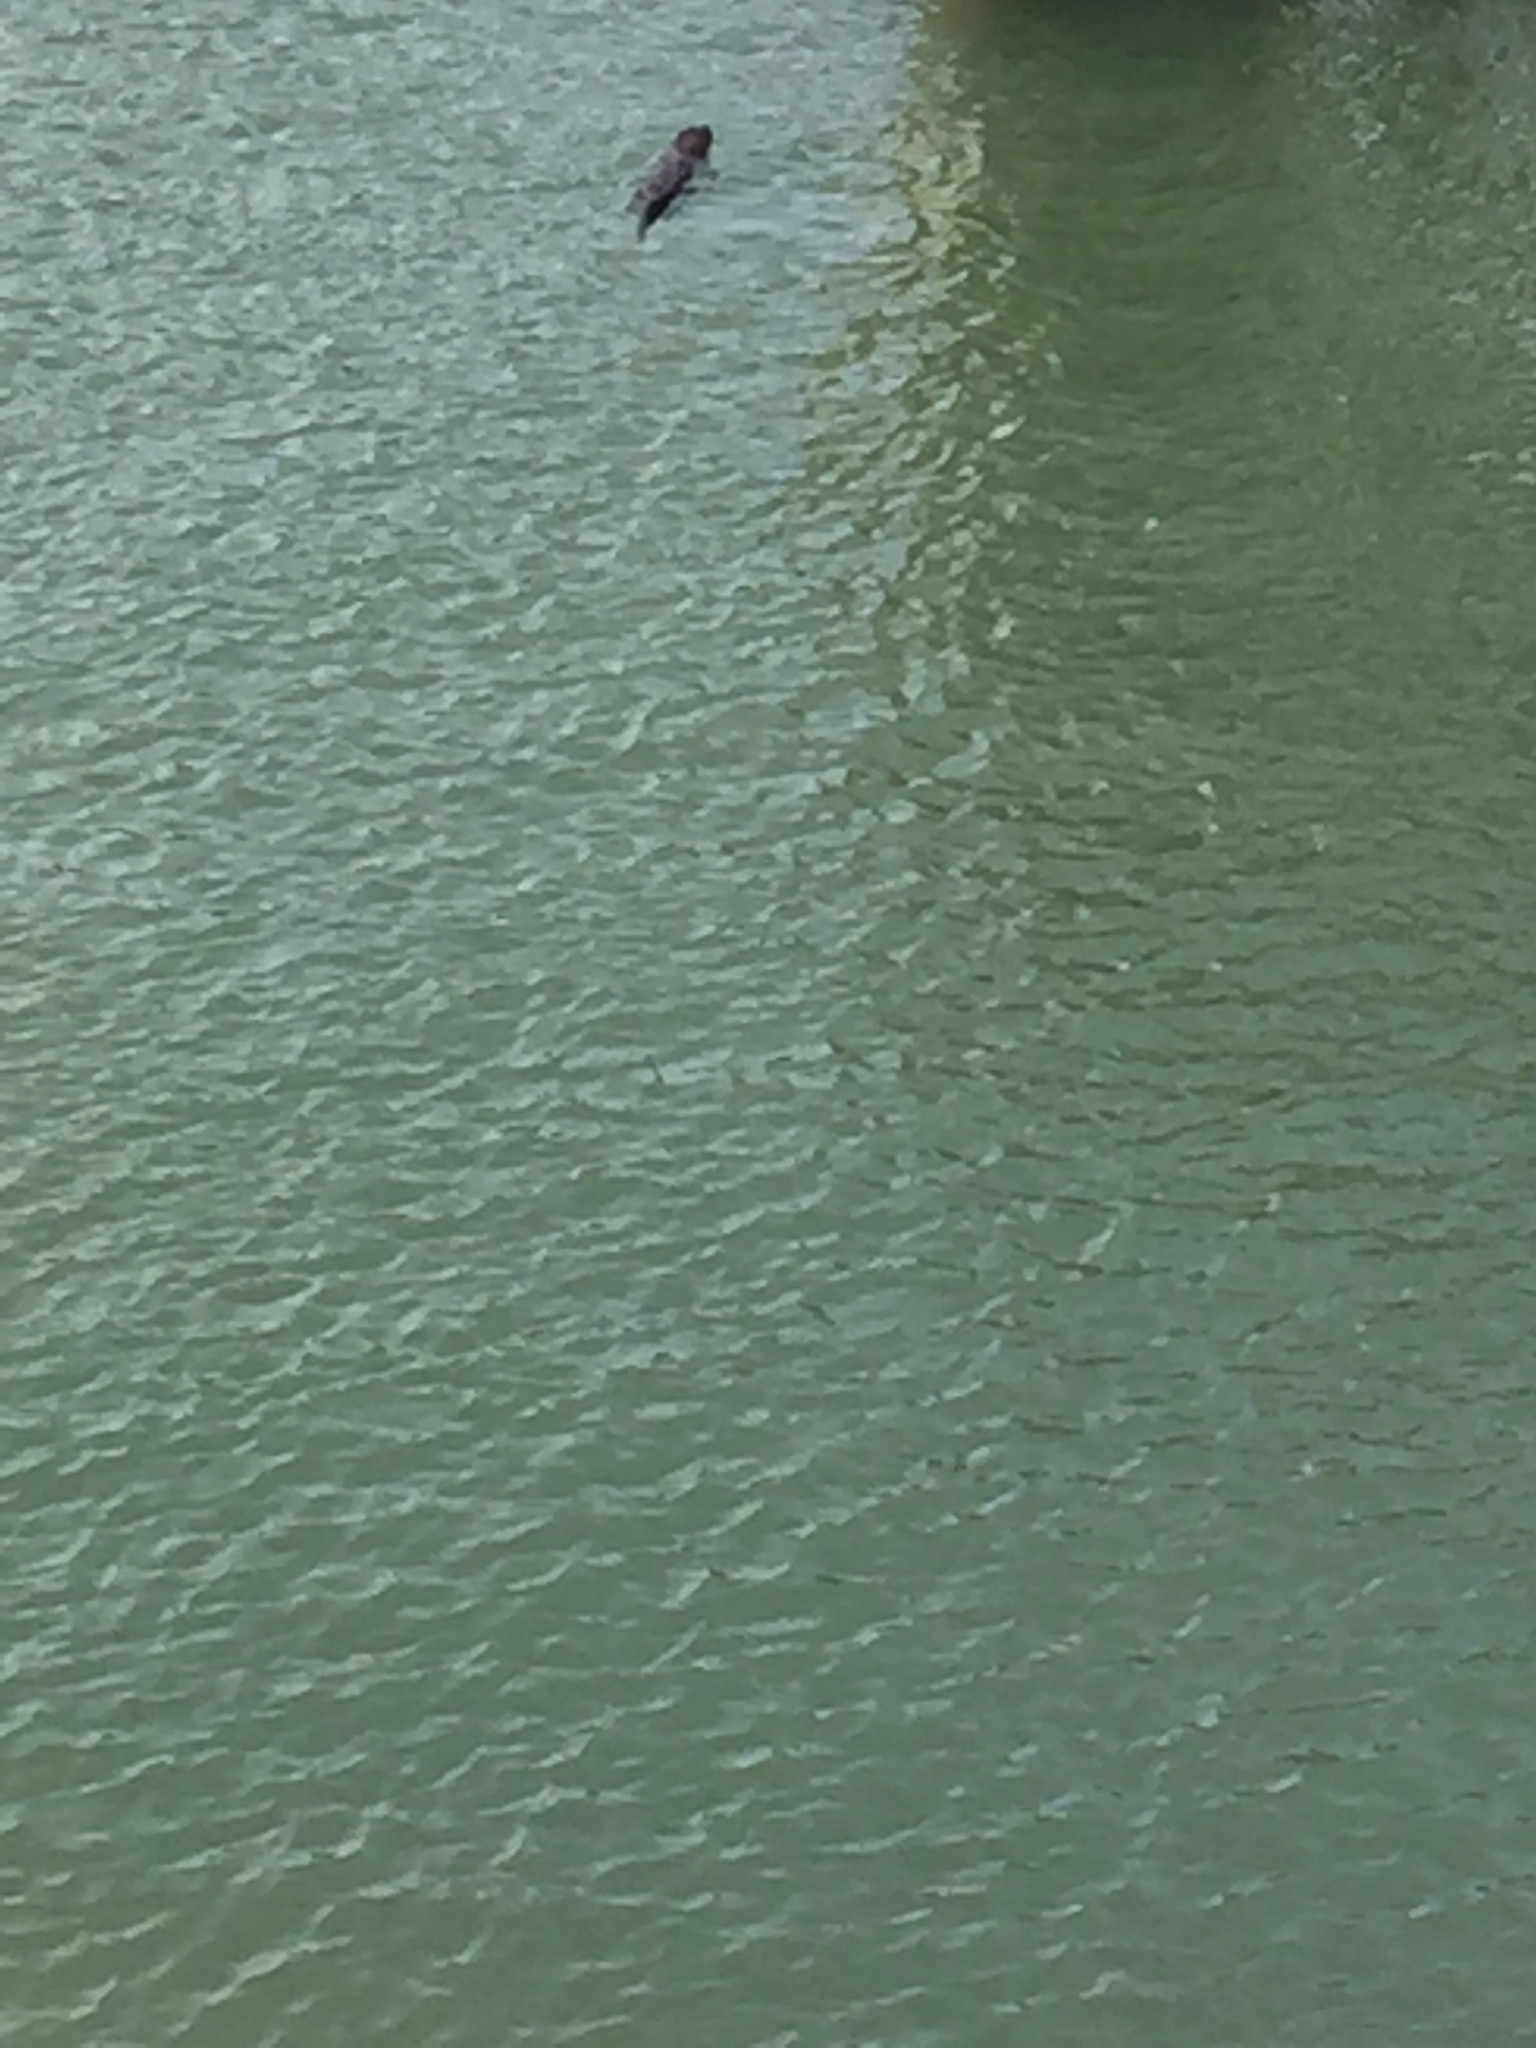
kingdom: Animalia
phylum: Chordata
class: Mammalia
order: Carnivora
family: Mustelidae
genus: Lontra
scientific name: Lontra canadensis
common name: North american river otter
